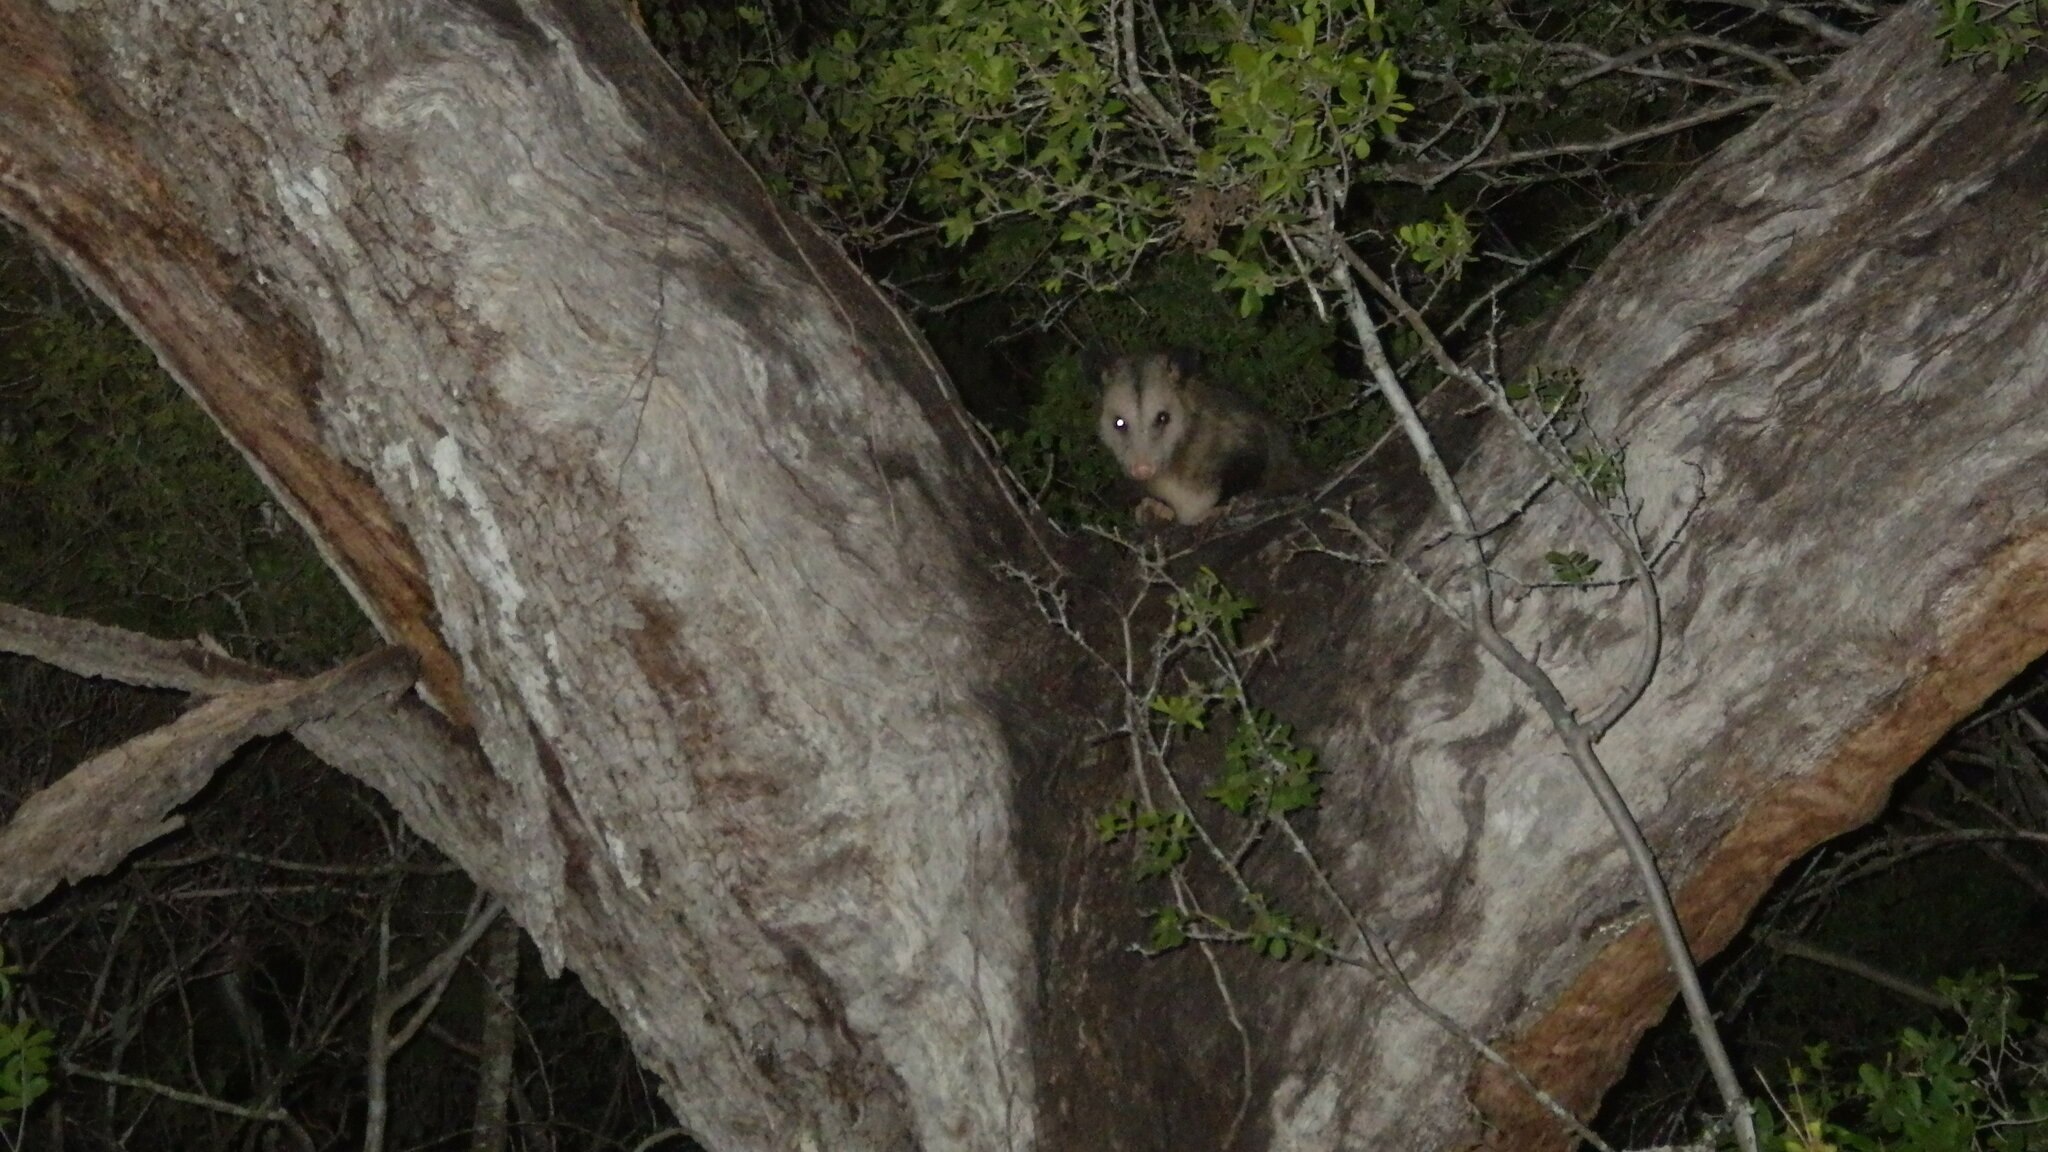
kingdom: Animalia
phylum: Chordata
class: Mammalia
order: Didelphimorphia
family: Didelphidae
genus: Didelphis
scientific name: Didelphis virginiana
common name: Virginia opossum
